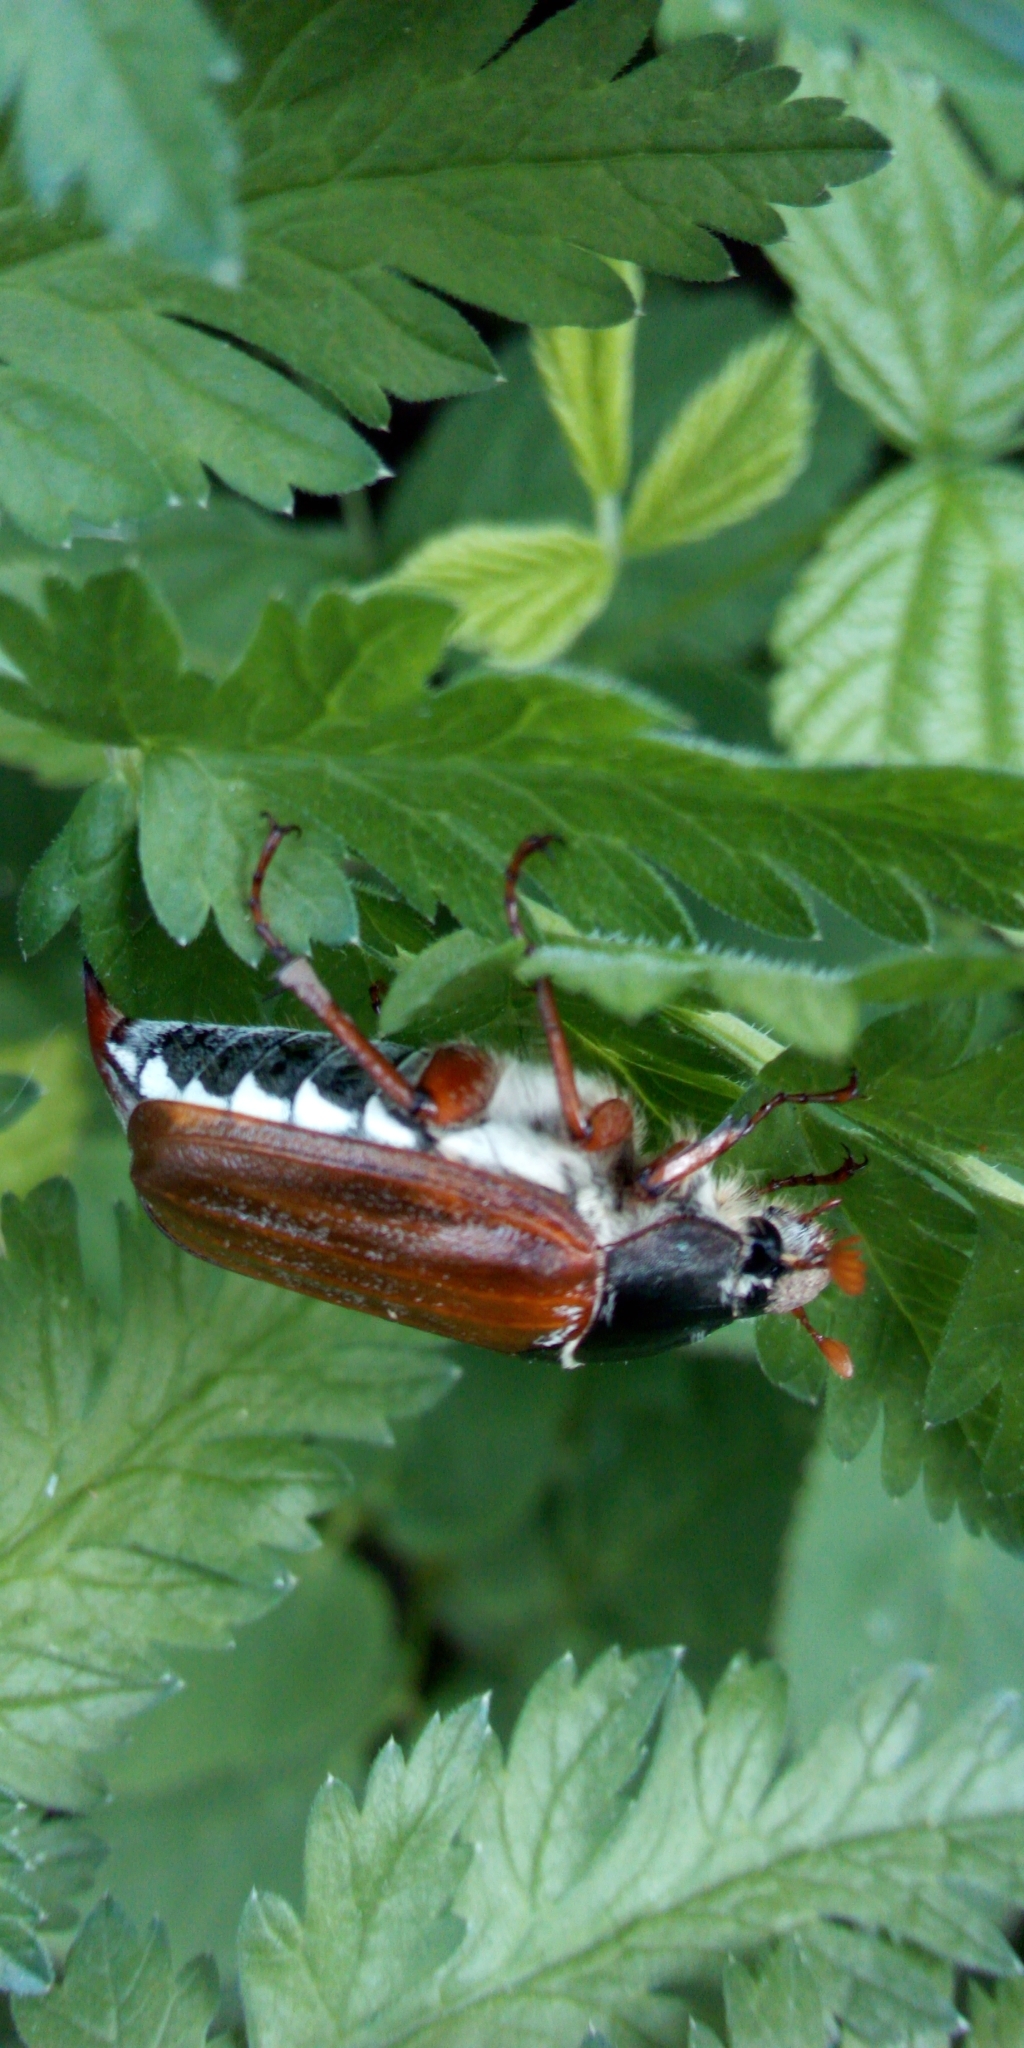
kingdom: Animalia
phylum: Arthropoda
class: Insecta
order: Coleoptera
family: Scarabaeidae
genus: Melolontha
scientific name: Melolontha melolontha
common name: Cockchafer maybeetle
